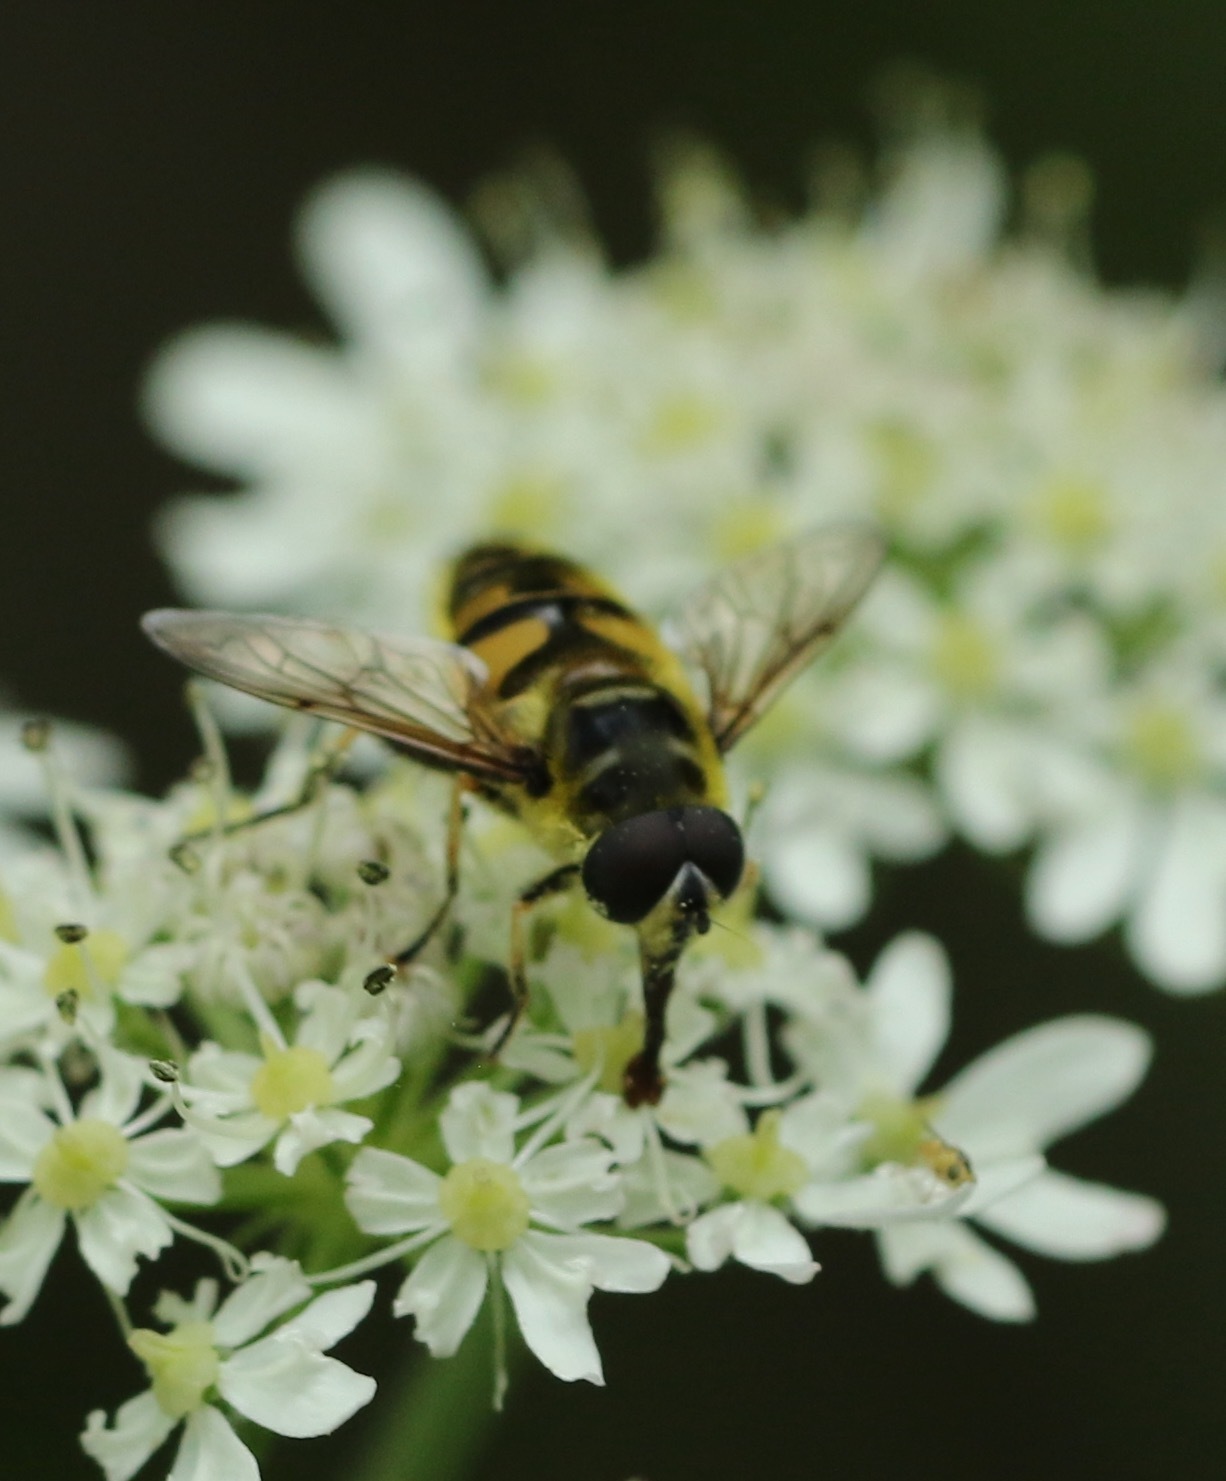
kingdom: Animalia
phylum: Arthropoda
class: Insecta
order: Diptera
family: Syrphidae
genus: Myathropa
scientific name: Myathropa florea
